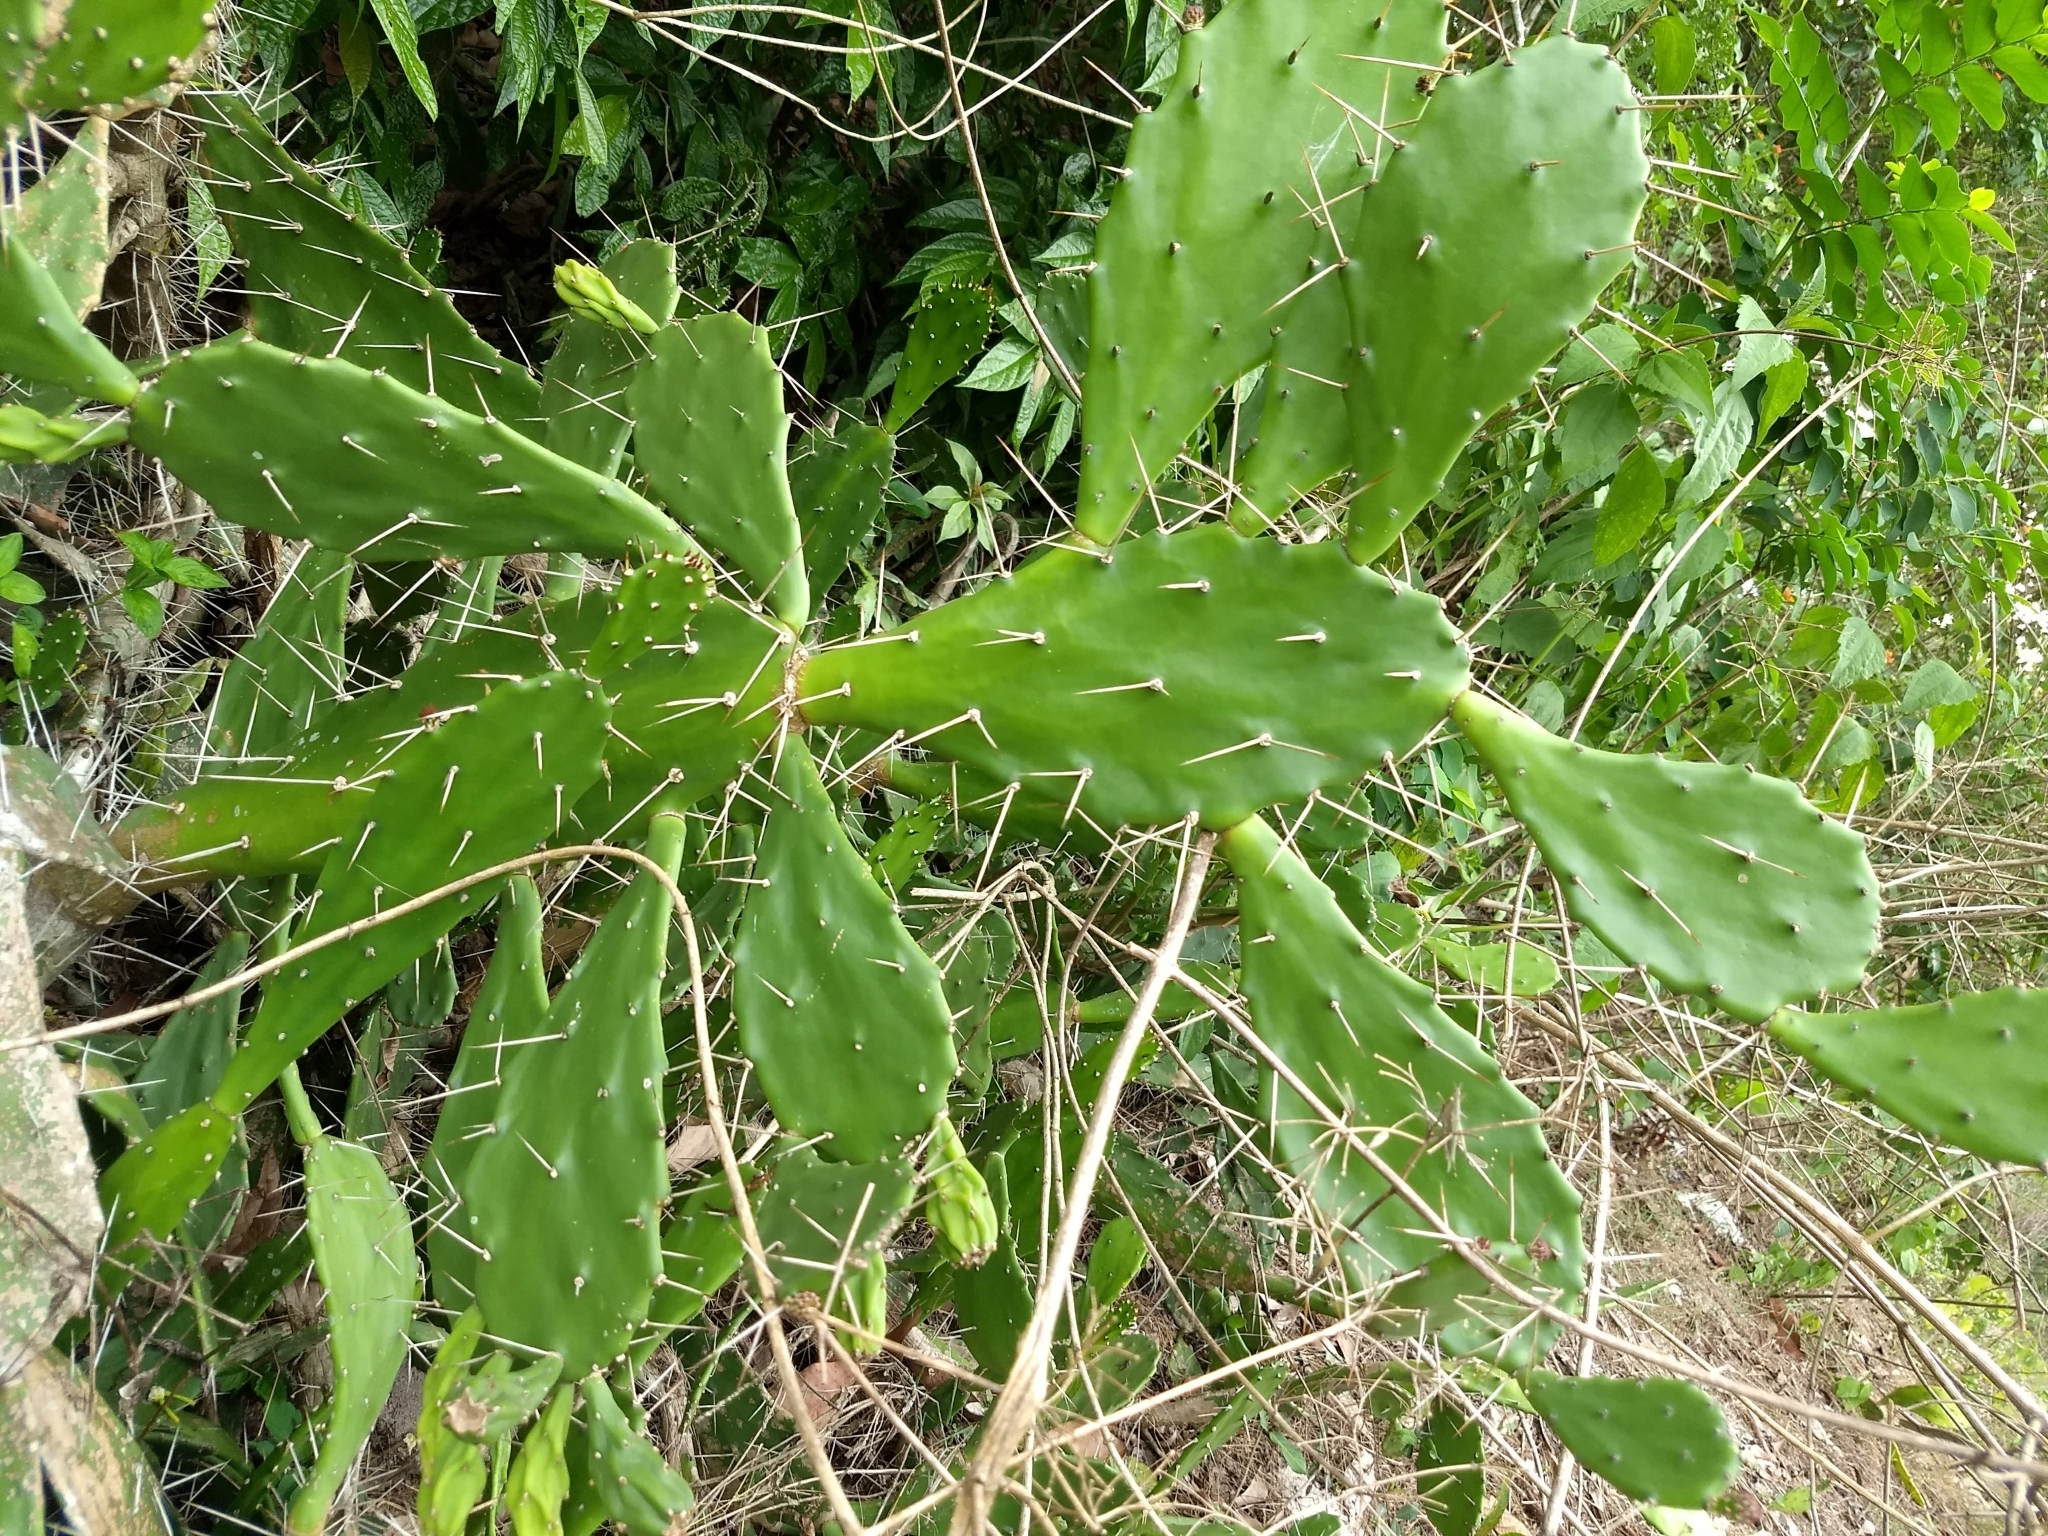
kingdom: Plantae
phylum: Tracheophyta
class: Magnoliopsida
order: Caryophyllales
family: Cactaceae
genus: Opuntia
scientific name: Opuntia monacantha
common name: Common pricklypear
